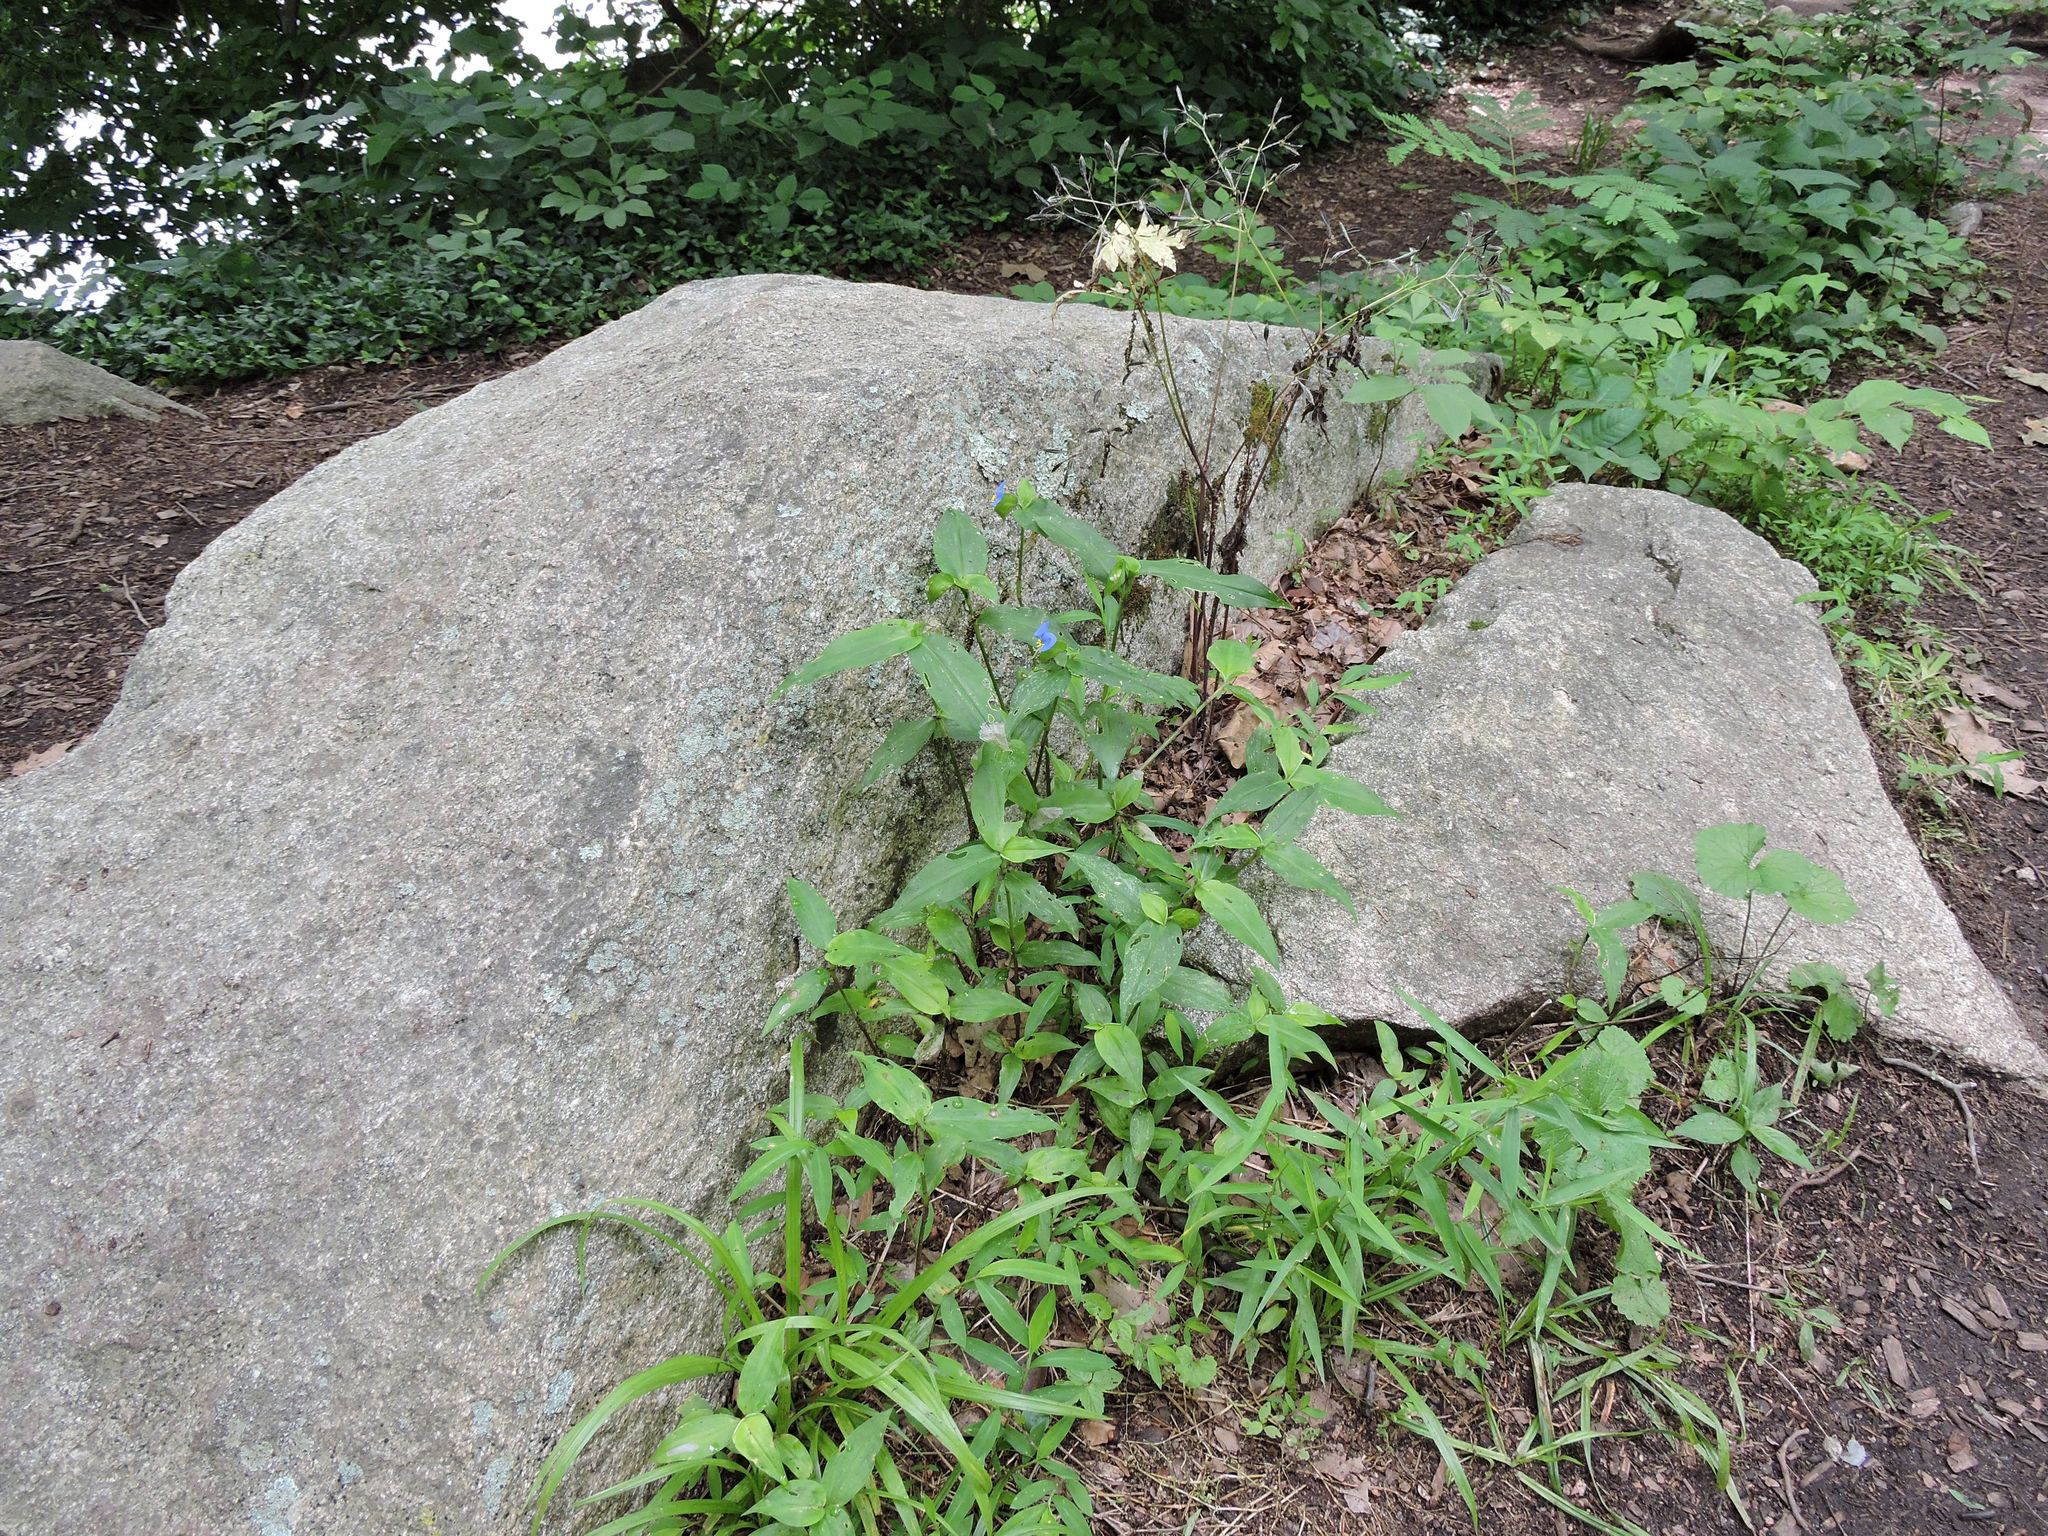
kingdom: Plantae
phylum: Tracheophyta
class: Liliopsida
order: Commelinales
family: Commelinaceae
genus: Commelina
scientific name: Commelina communis
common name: Asiatic dayflower
